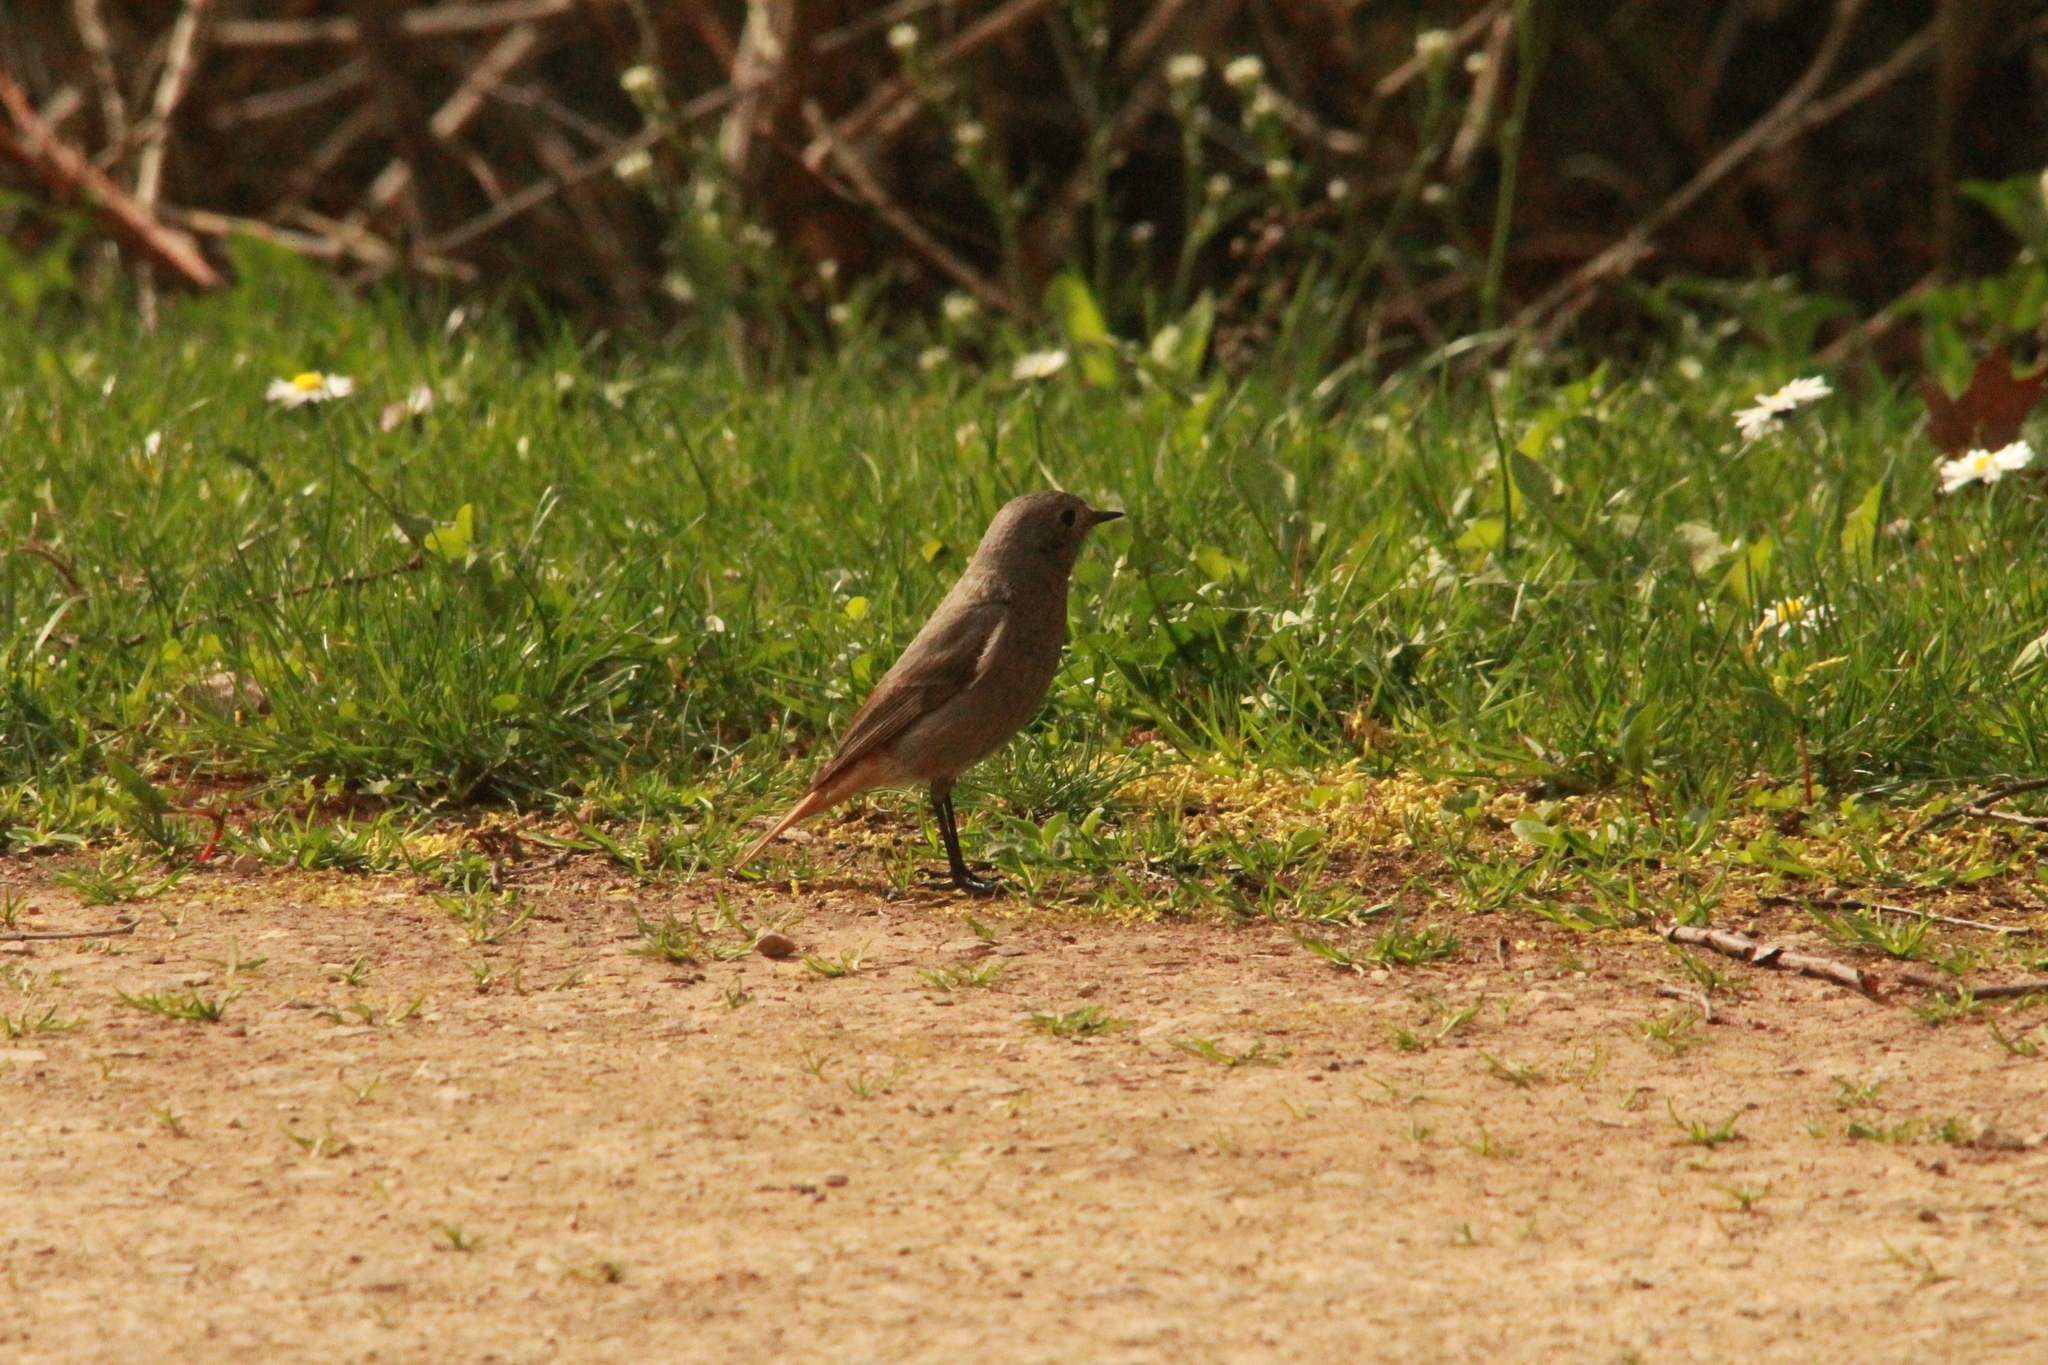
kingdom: Animalia
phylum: Chordata
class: Aves
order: Passeriformes
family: Muscicapidae
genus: Phoenicurus
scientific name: Phoenicurus ochruros
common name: Black redstart
